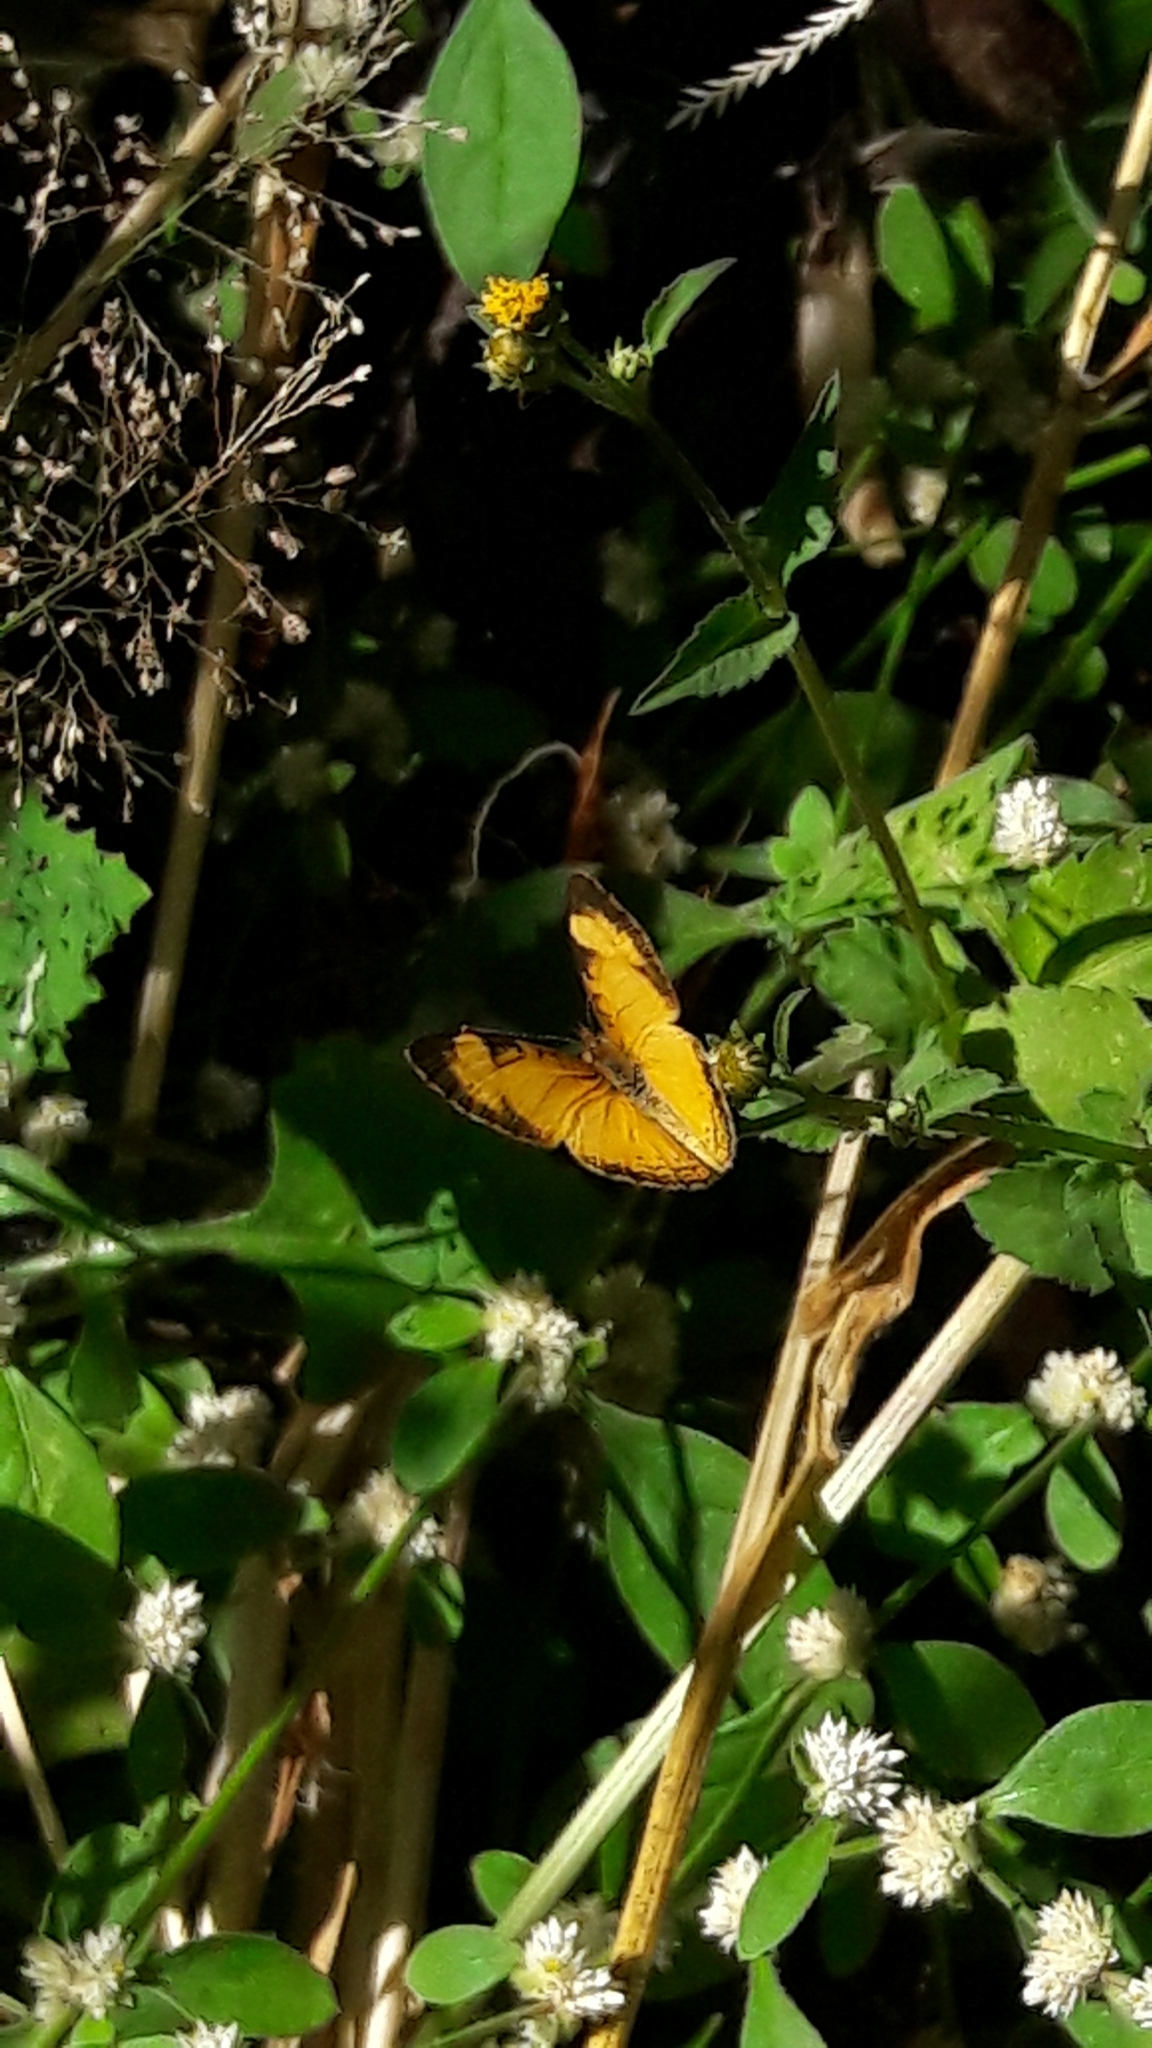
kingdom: Animalia
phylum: Arthropoda
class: Insecta
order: Lepidoptera
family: Nymphalidae
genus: Tegosa
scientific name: Tegosa claudina
